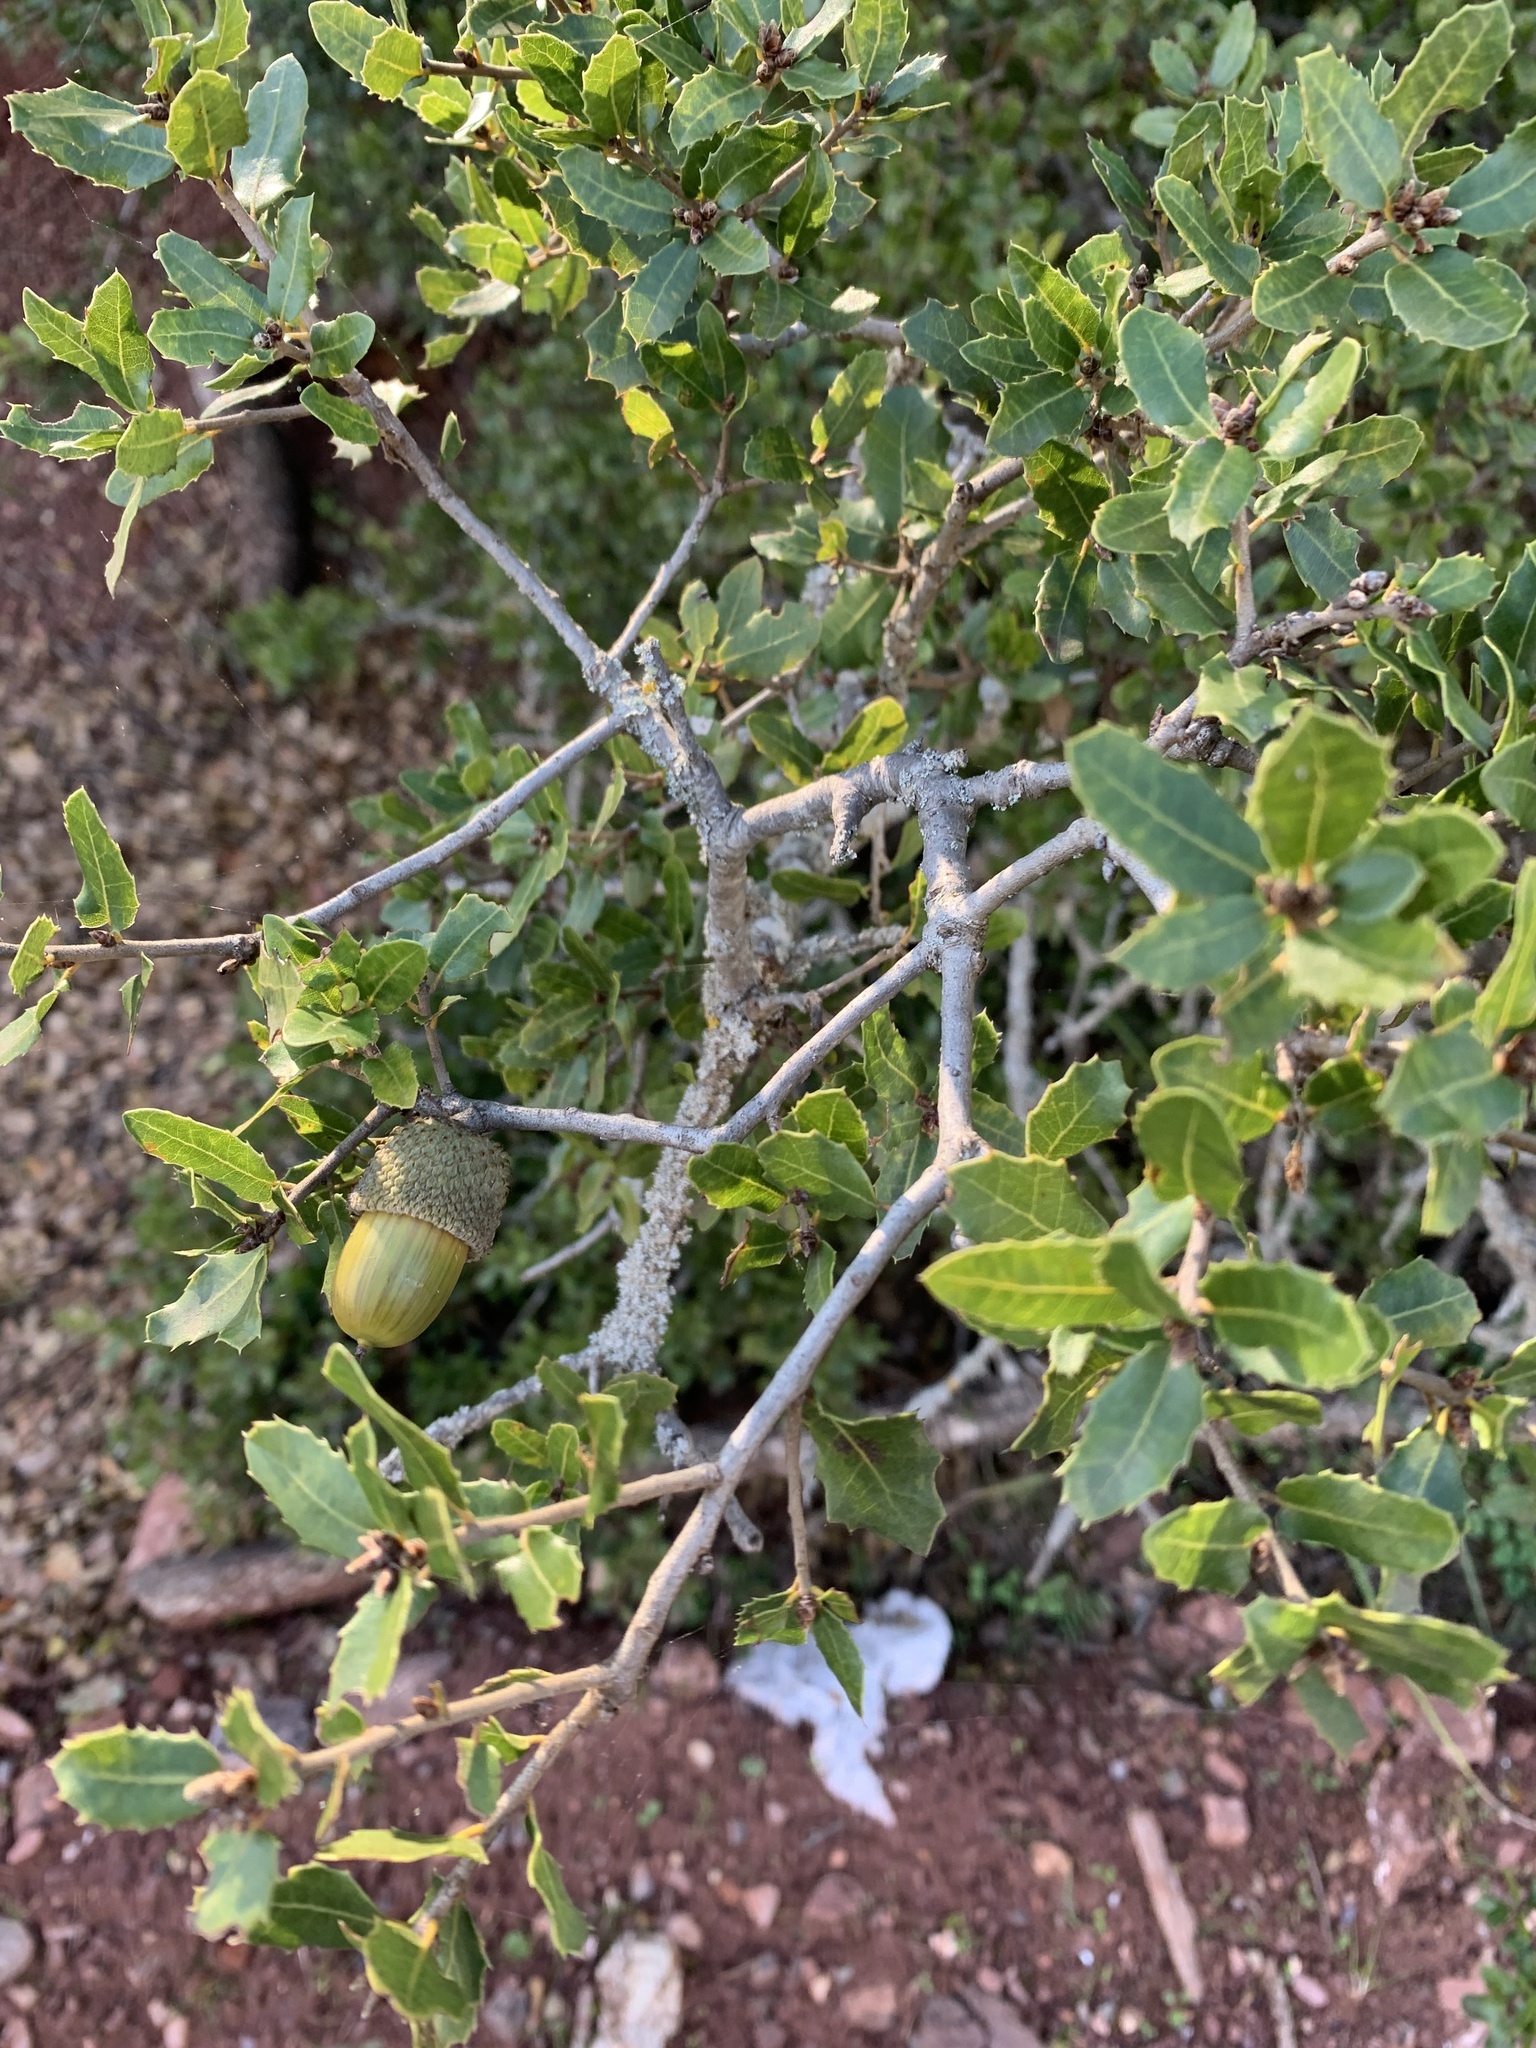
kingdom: Plantae
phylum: Tracheophyta
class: Magnoliopsida
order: Fagales
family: Fagaceae
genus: Quercus
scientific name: Quercus coccifera
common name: Kermes oak
